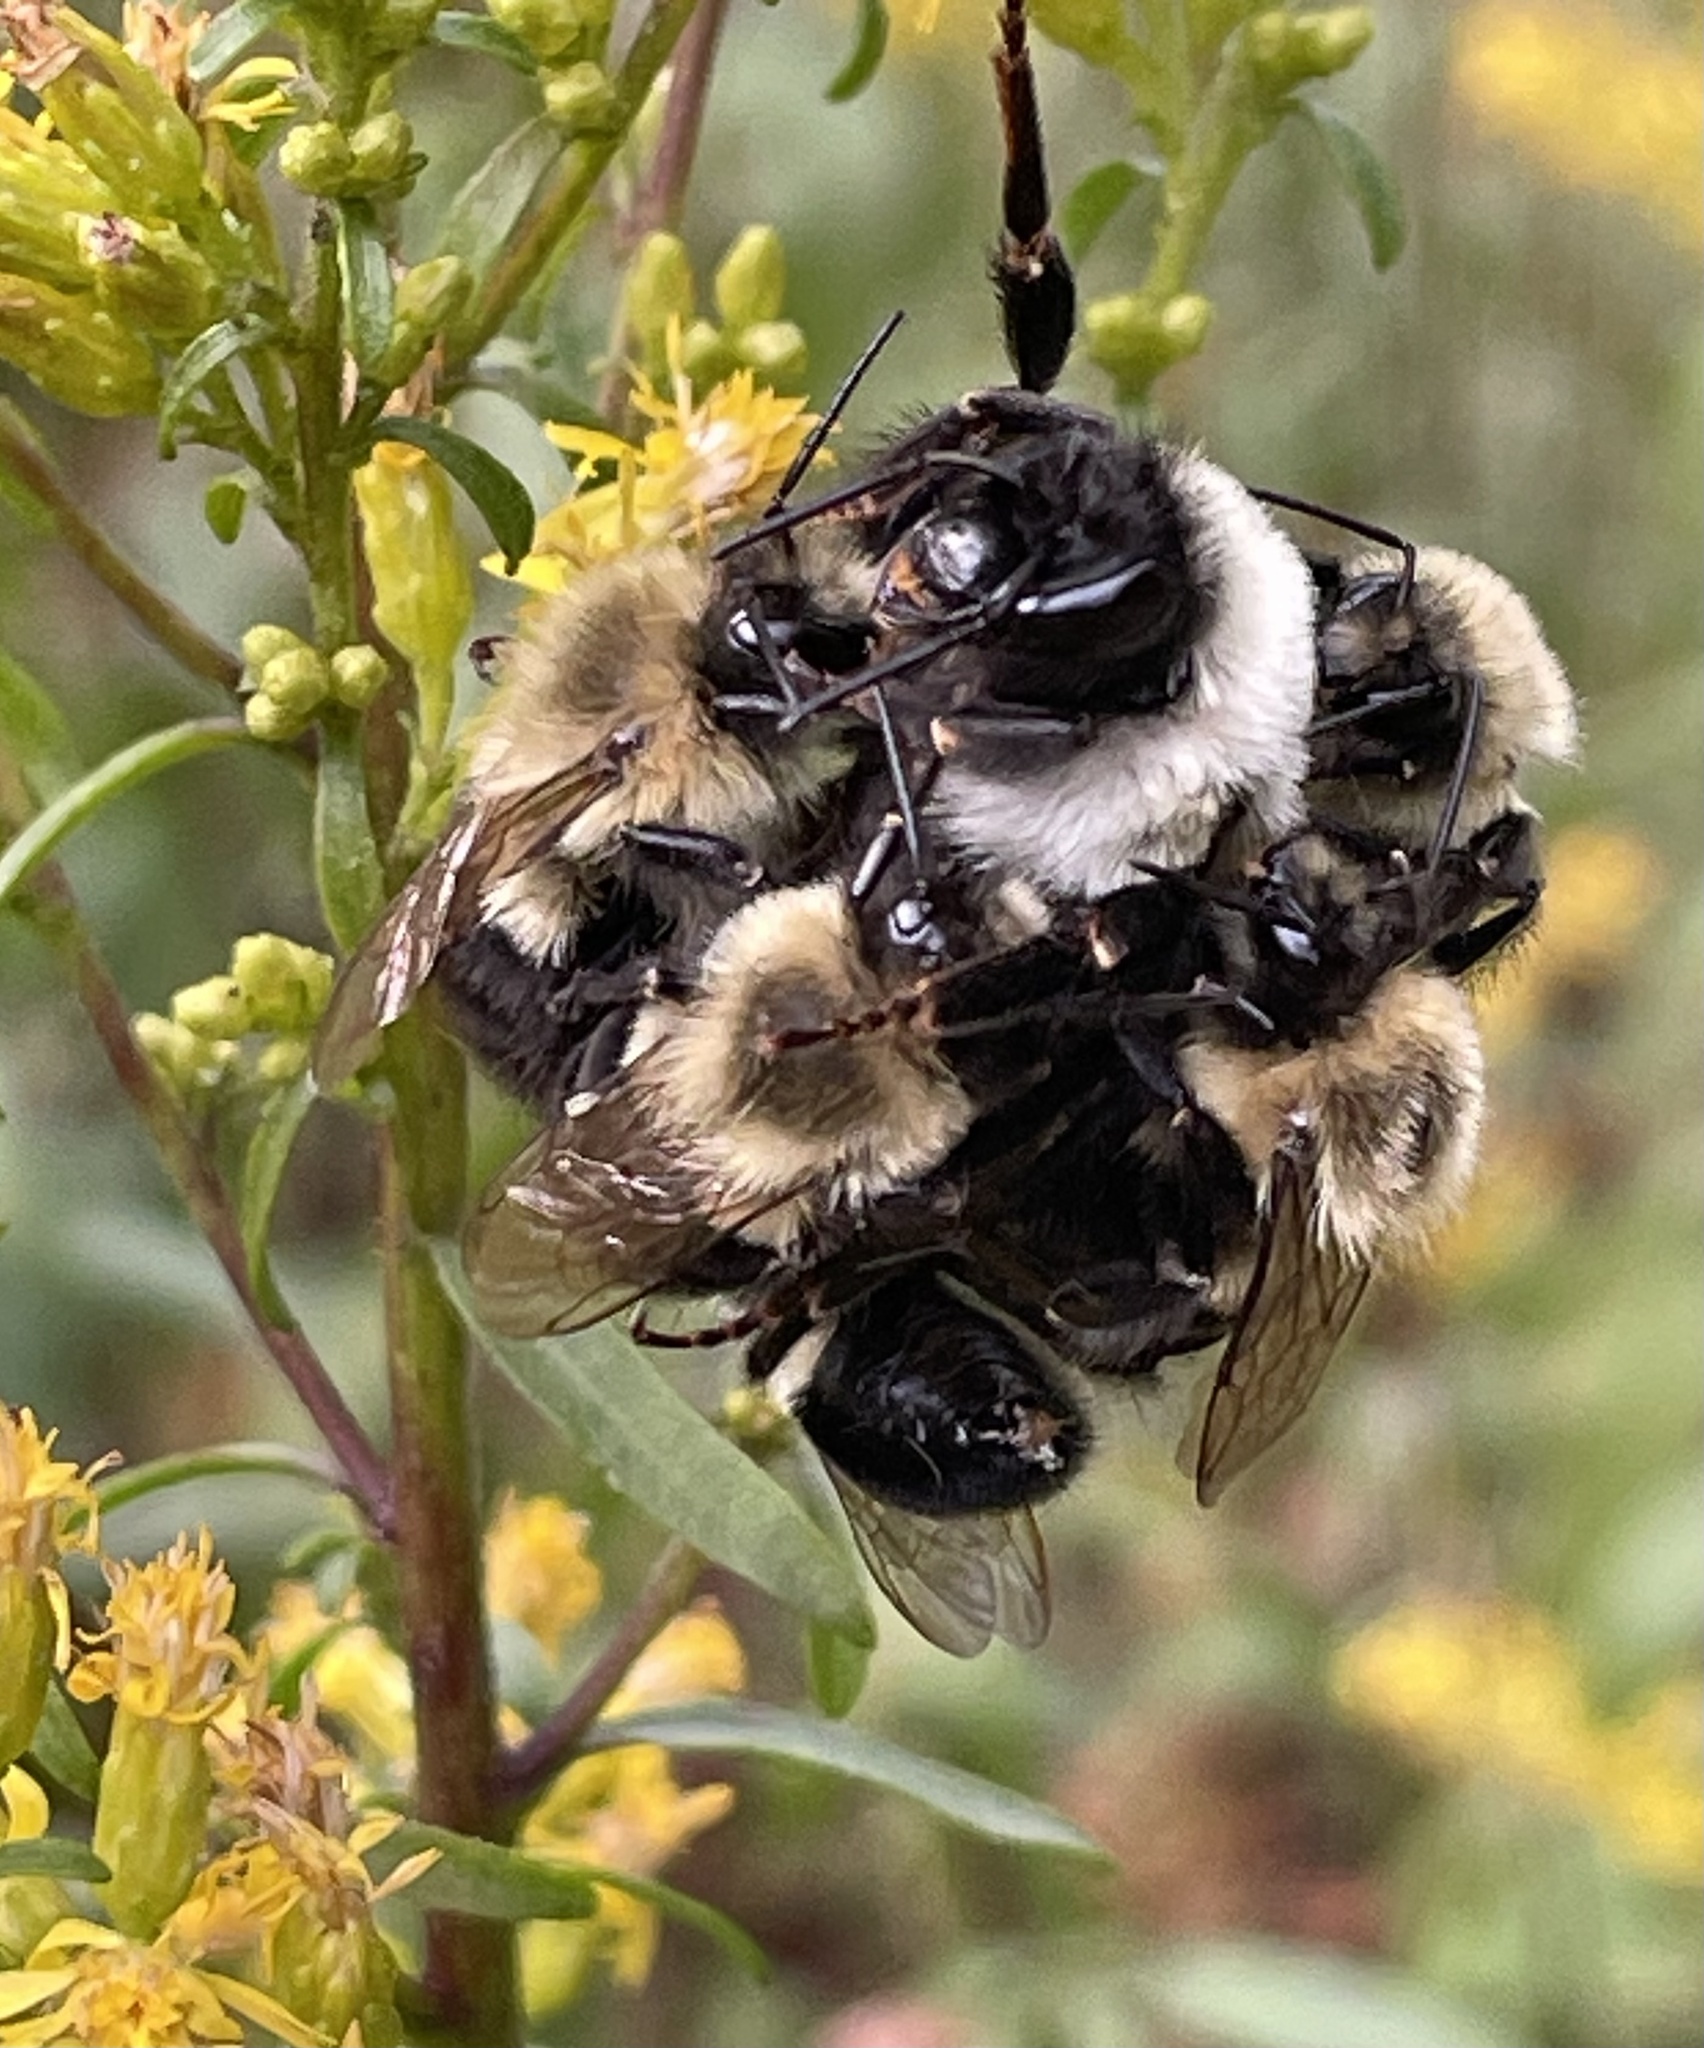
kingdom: Animalia
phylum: Arthropoda
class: Insecta
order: Hymenoptera
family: Apidae
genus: Bombus
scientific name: Bombus impatiens
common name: Common eastern bumble bee
